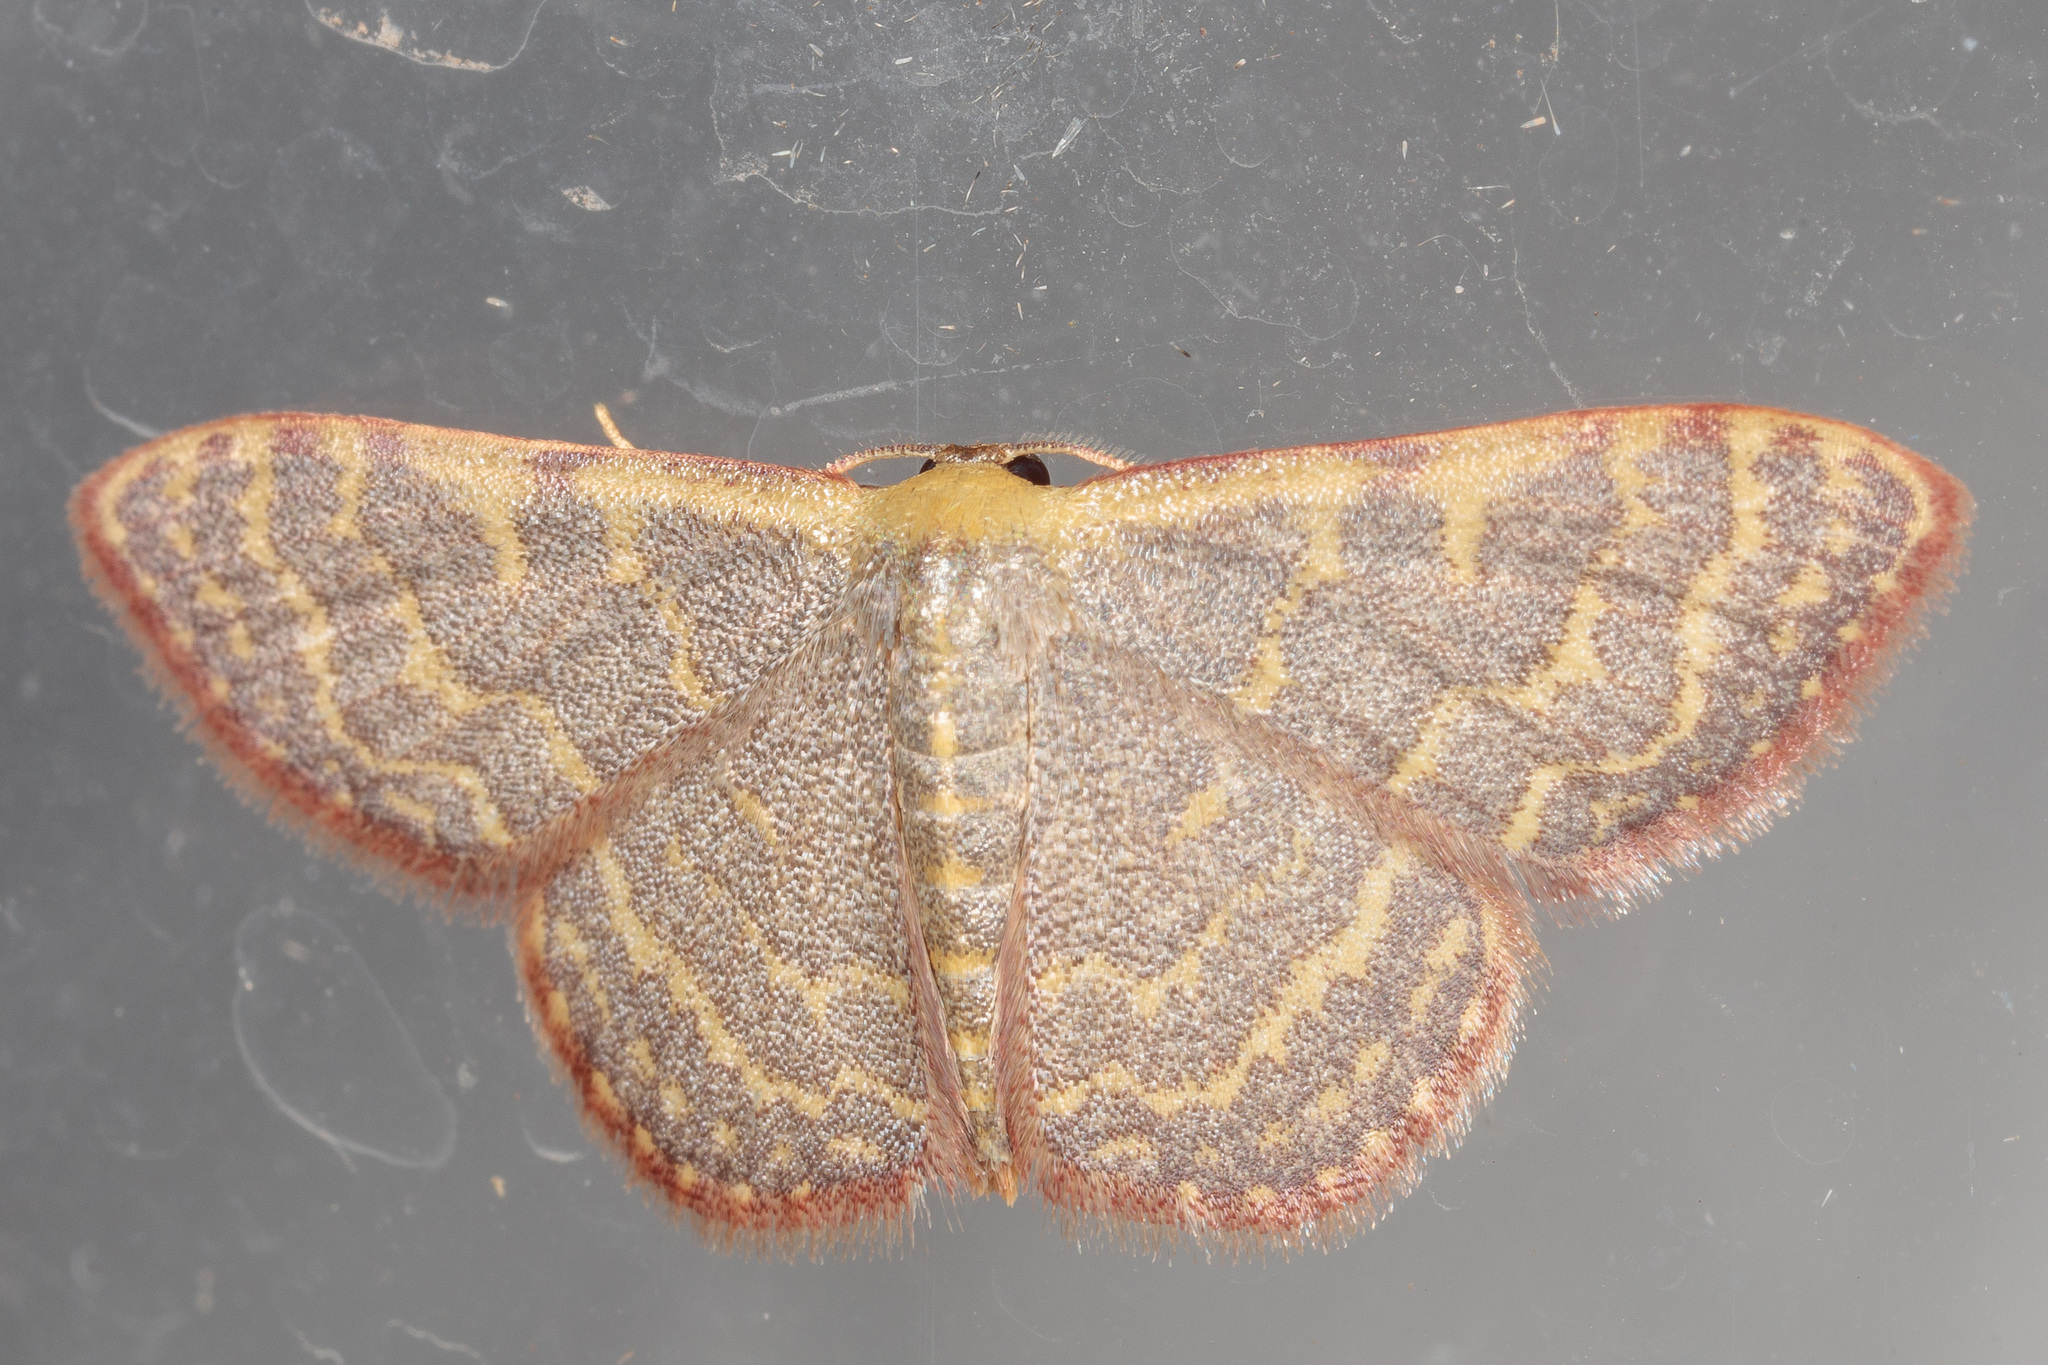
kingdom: Animalia
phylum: Arthropoda
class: Insecta
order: Lepidoptera
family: Geometridae
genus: Leptostales
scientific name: Leptostales pannaria
